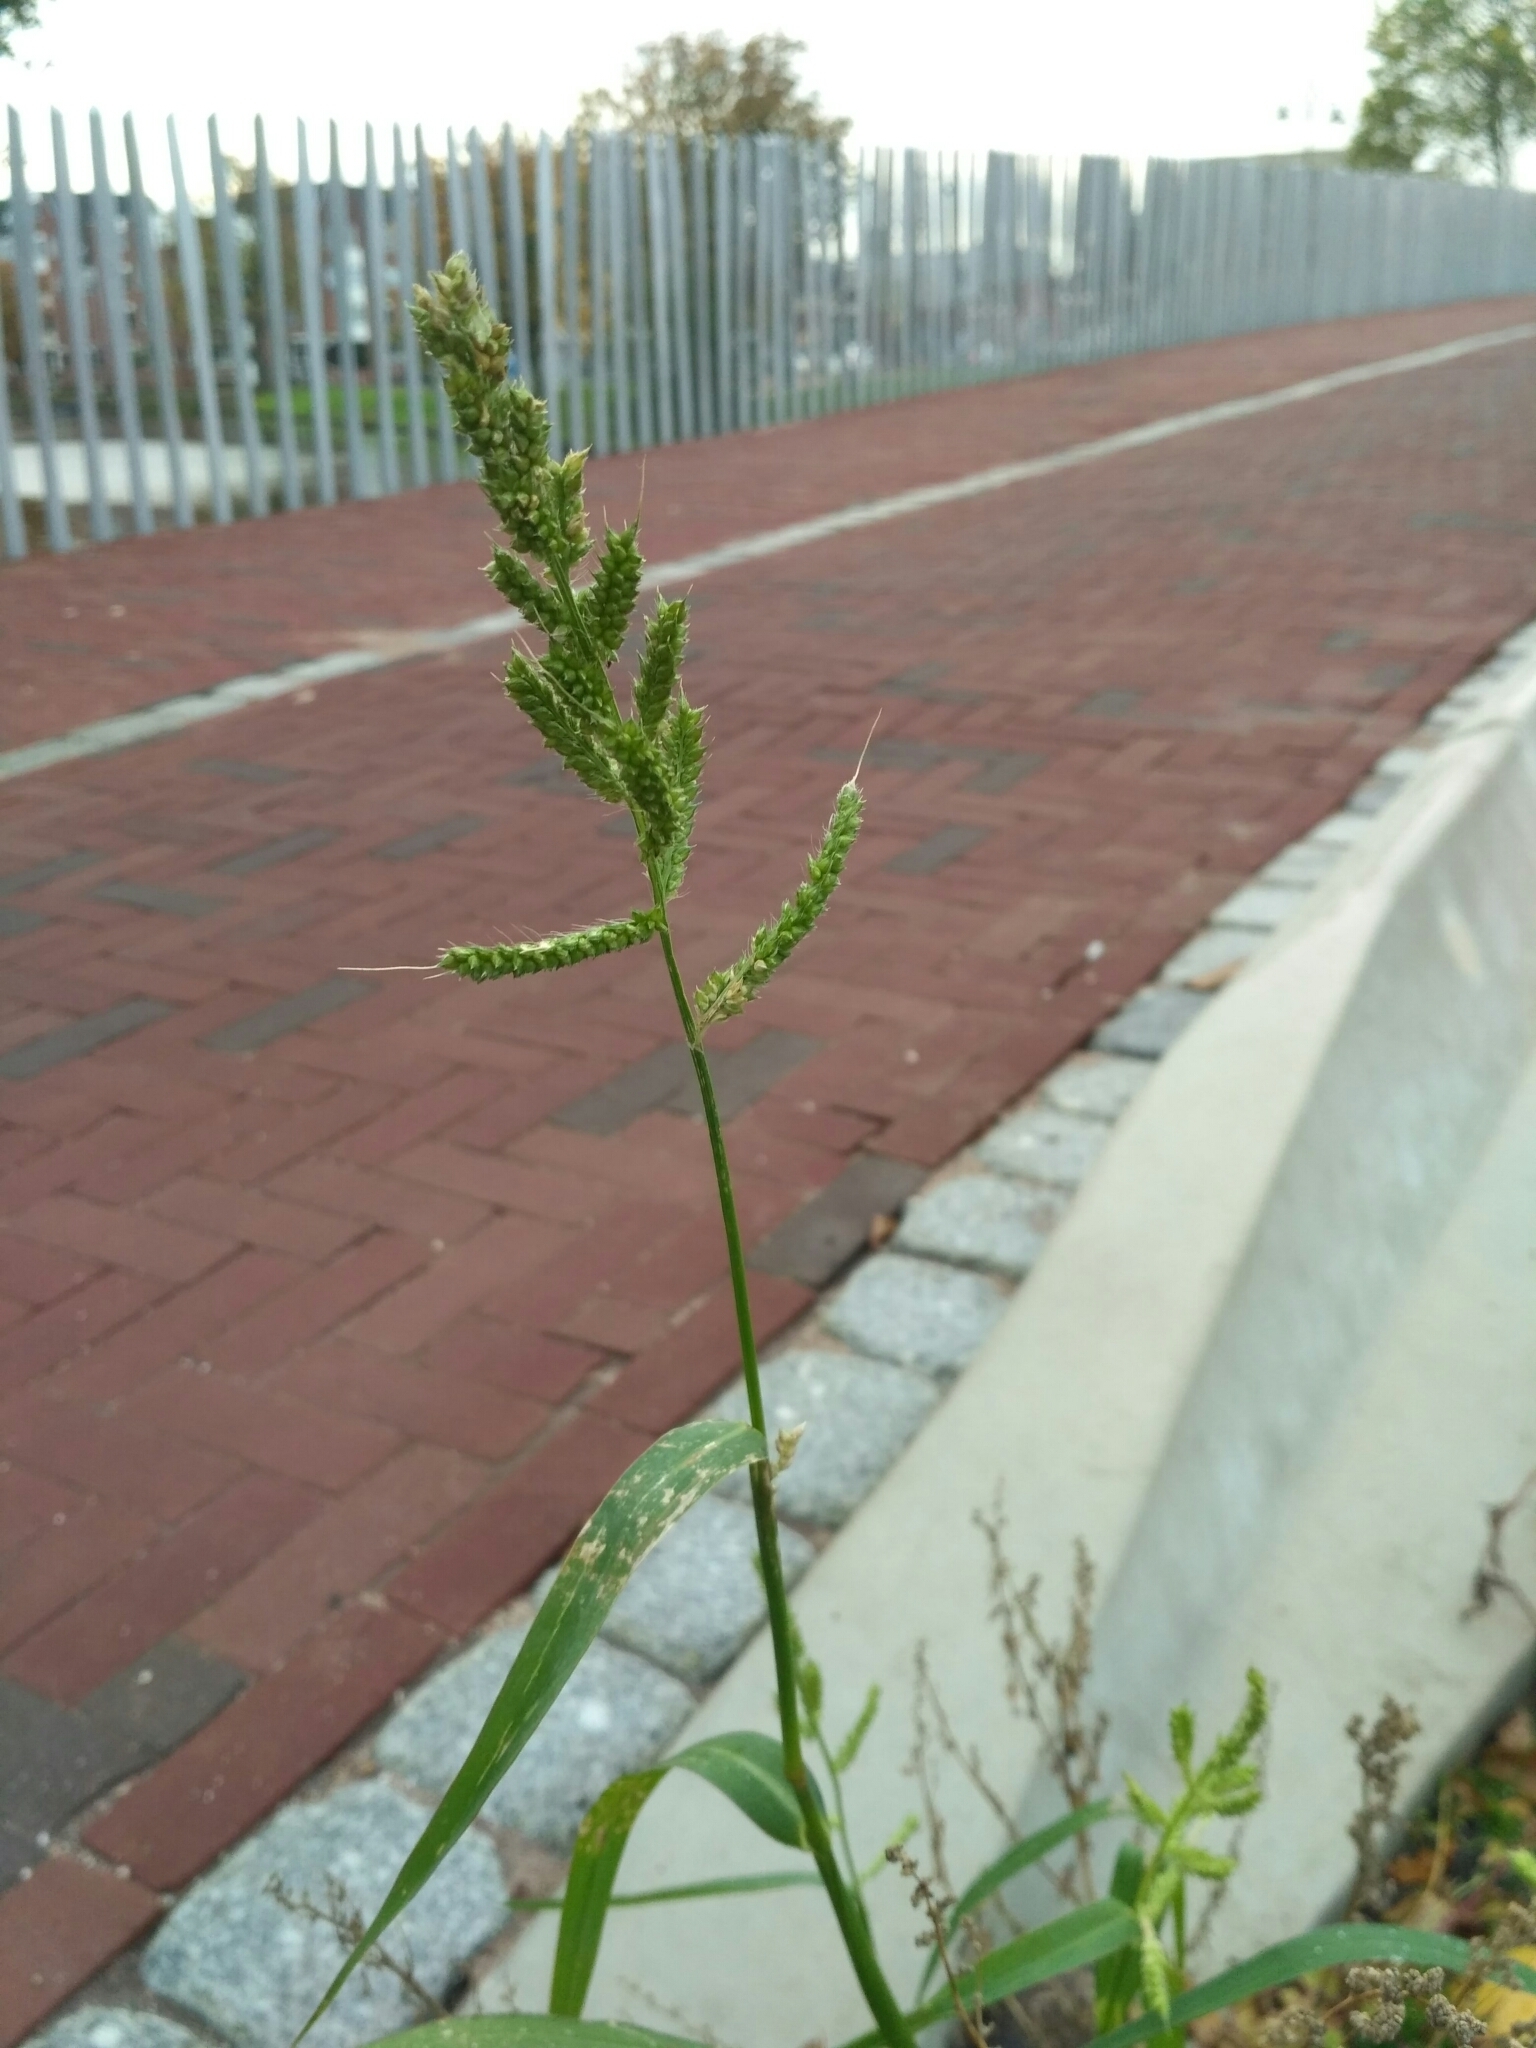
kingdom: Plantae
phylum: Tracheophyta
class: Liliopsida
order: Poales
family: Poaceae
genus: Echinochloa
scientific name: Echinochloa crus-galli
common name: Cockspur
